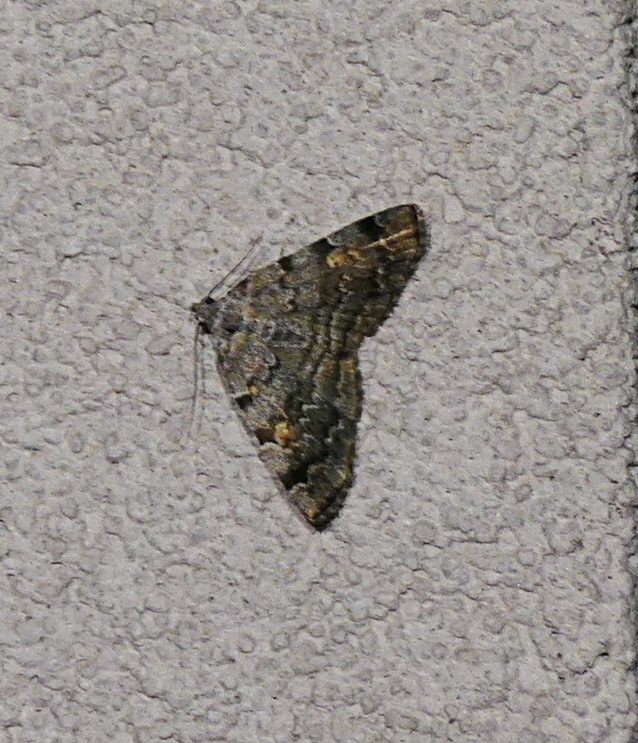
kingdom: Animalia
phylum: Arthropoda
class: Insecta
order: Lepidoptera
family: Erebidae
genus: Idia
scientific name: Idia americalis
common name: American idia moth
